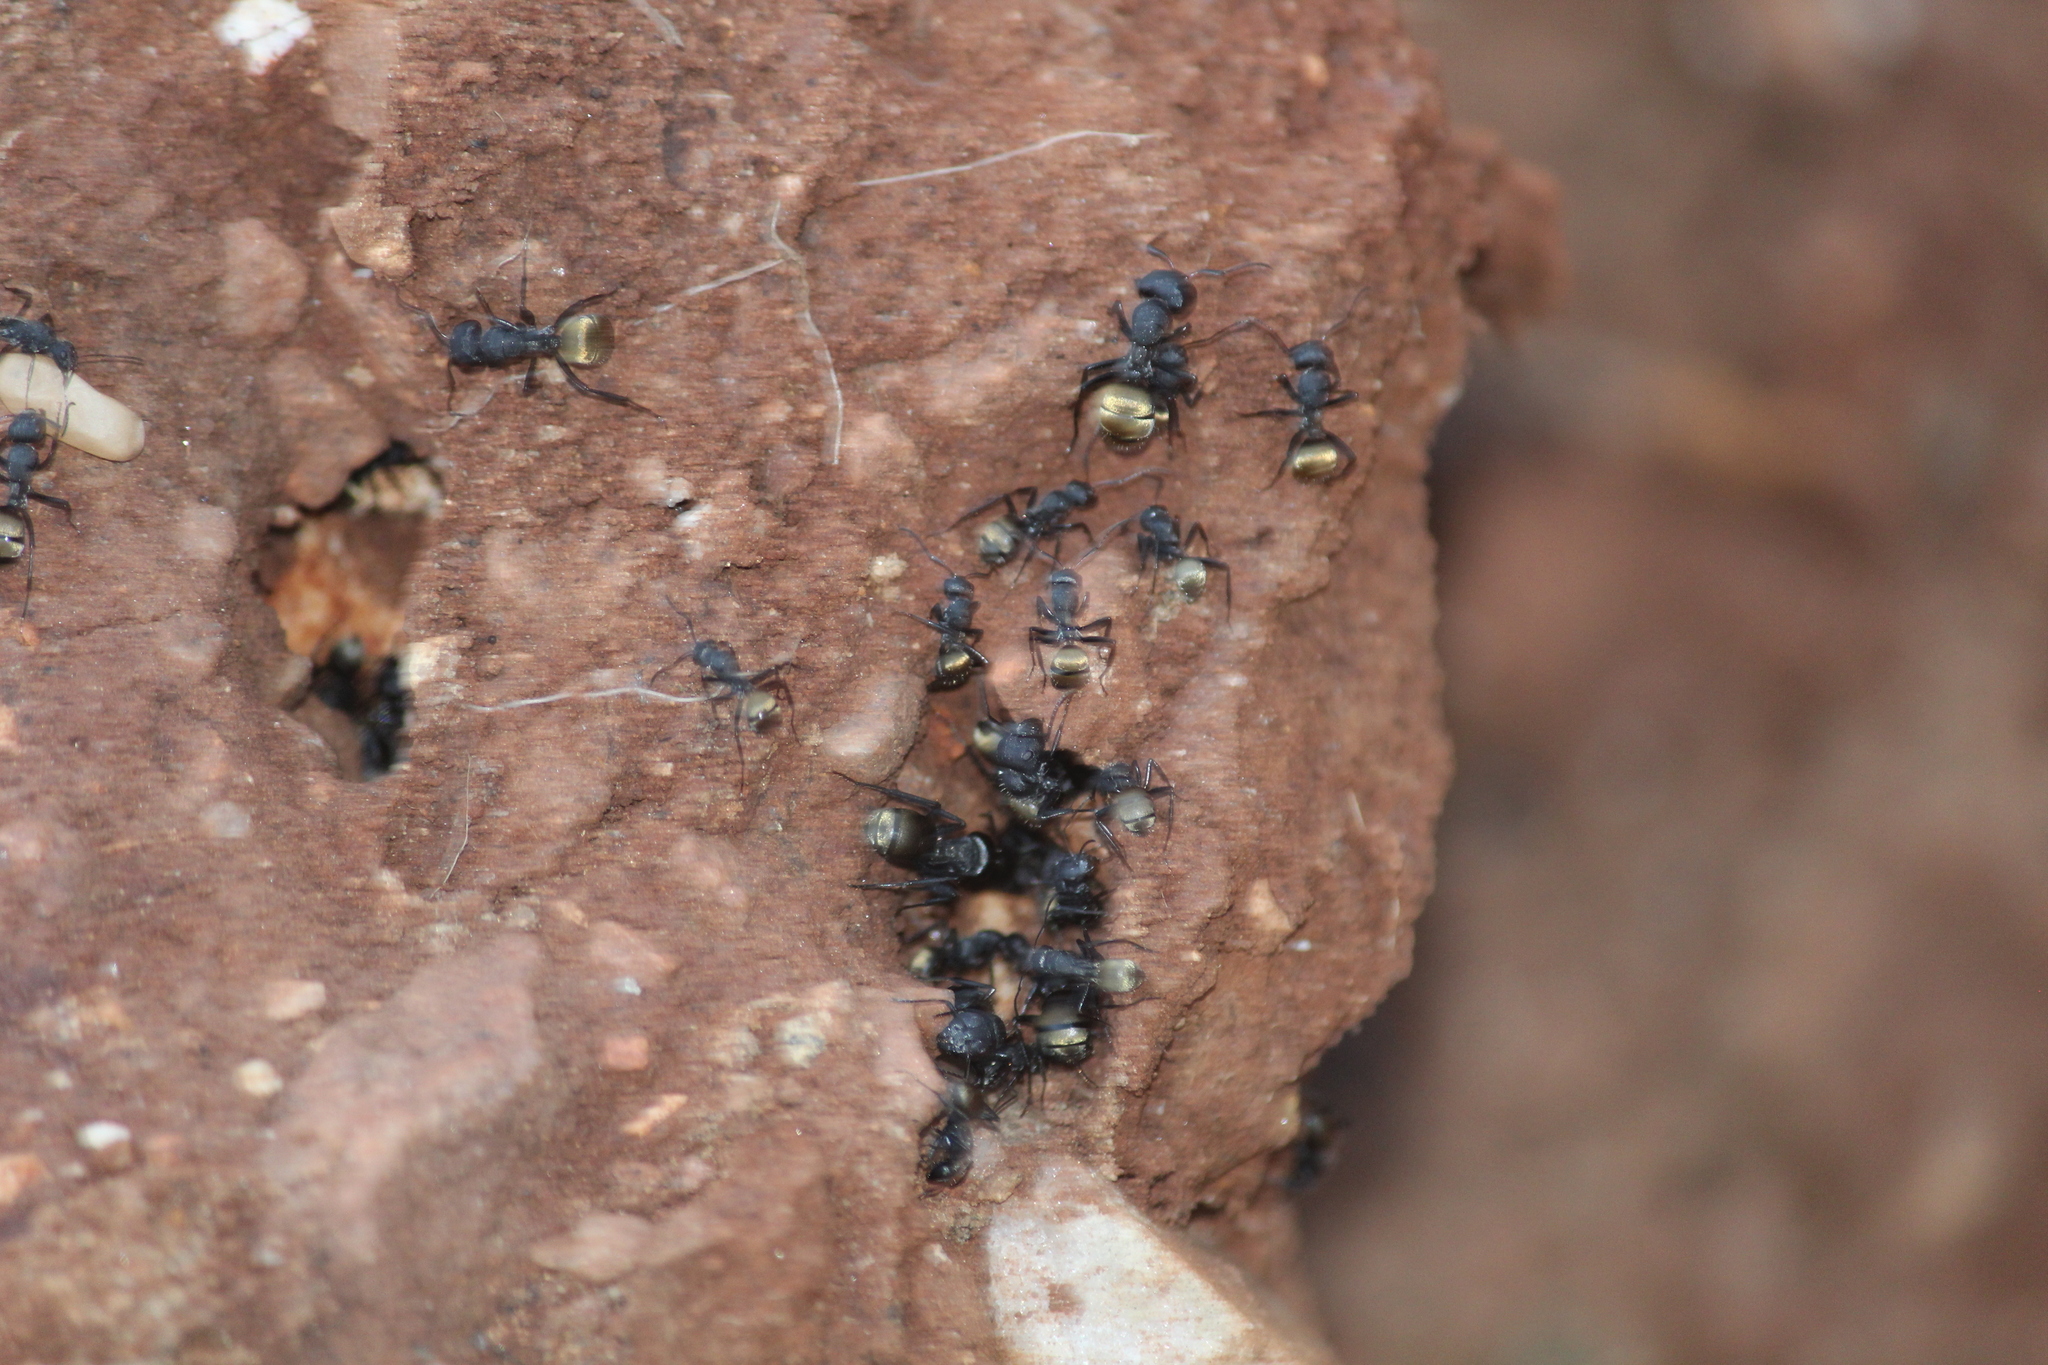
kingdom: Animalia
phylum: Arthropoda
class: Insecta
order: Hymenoptera
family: Formicidae
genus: Camponotus
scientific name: Camponotus sericeus
